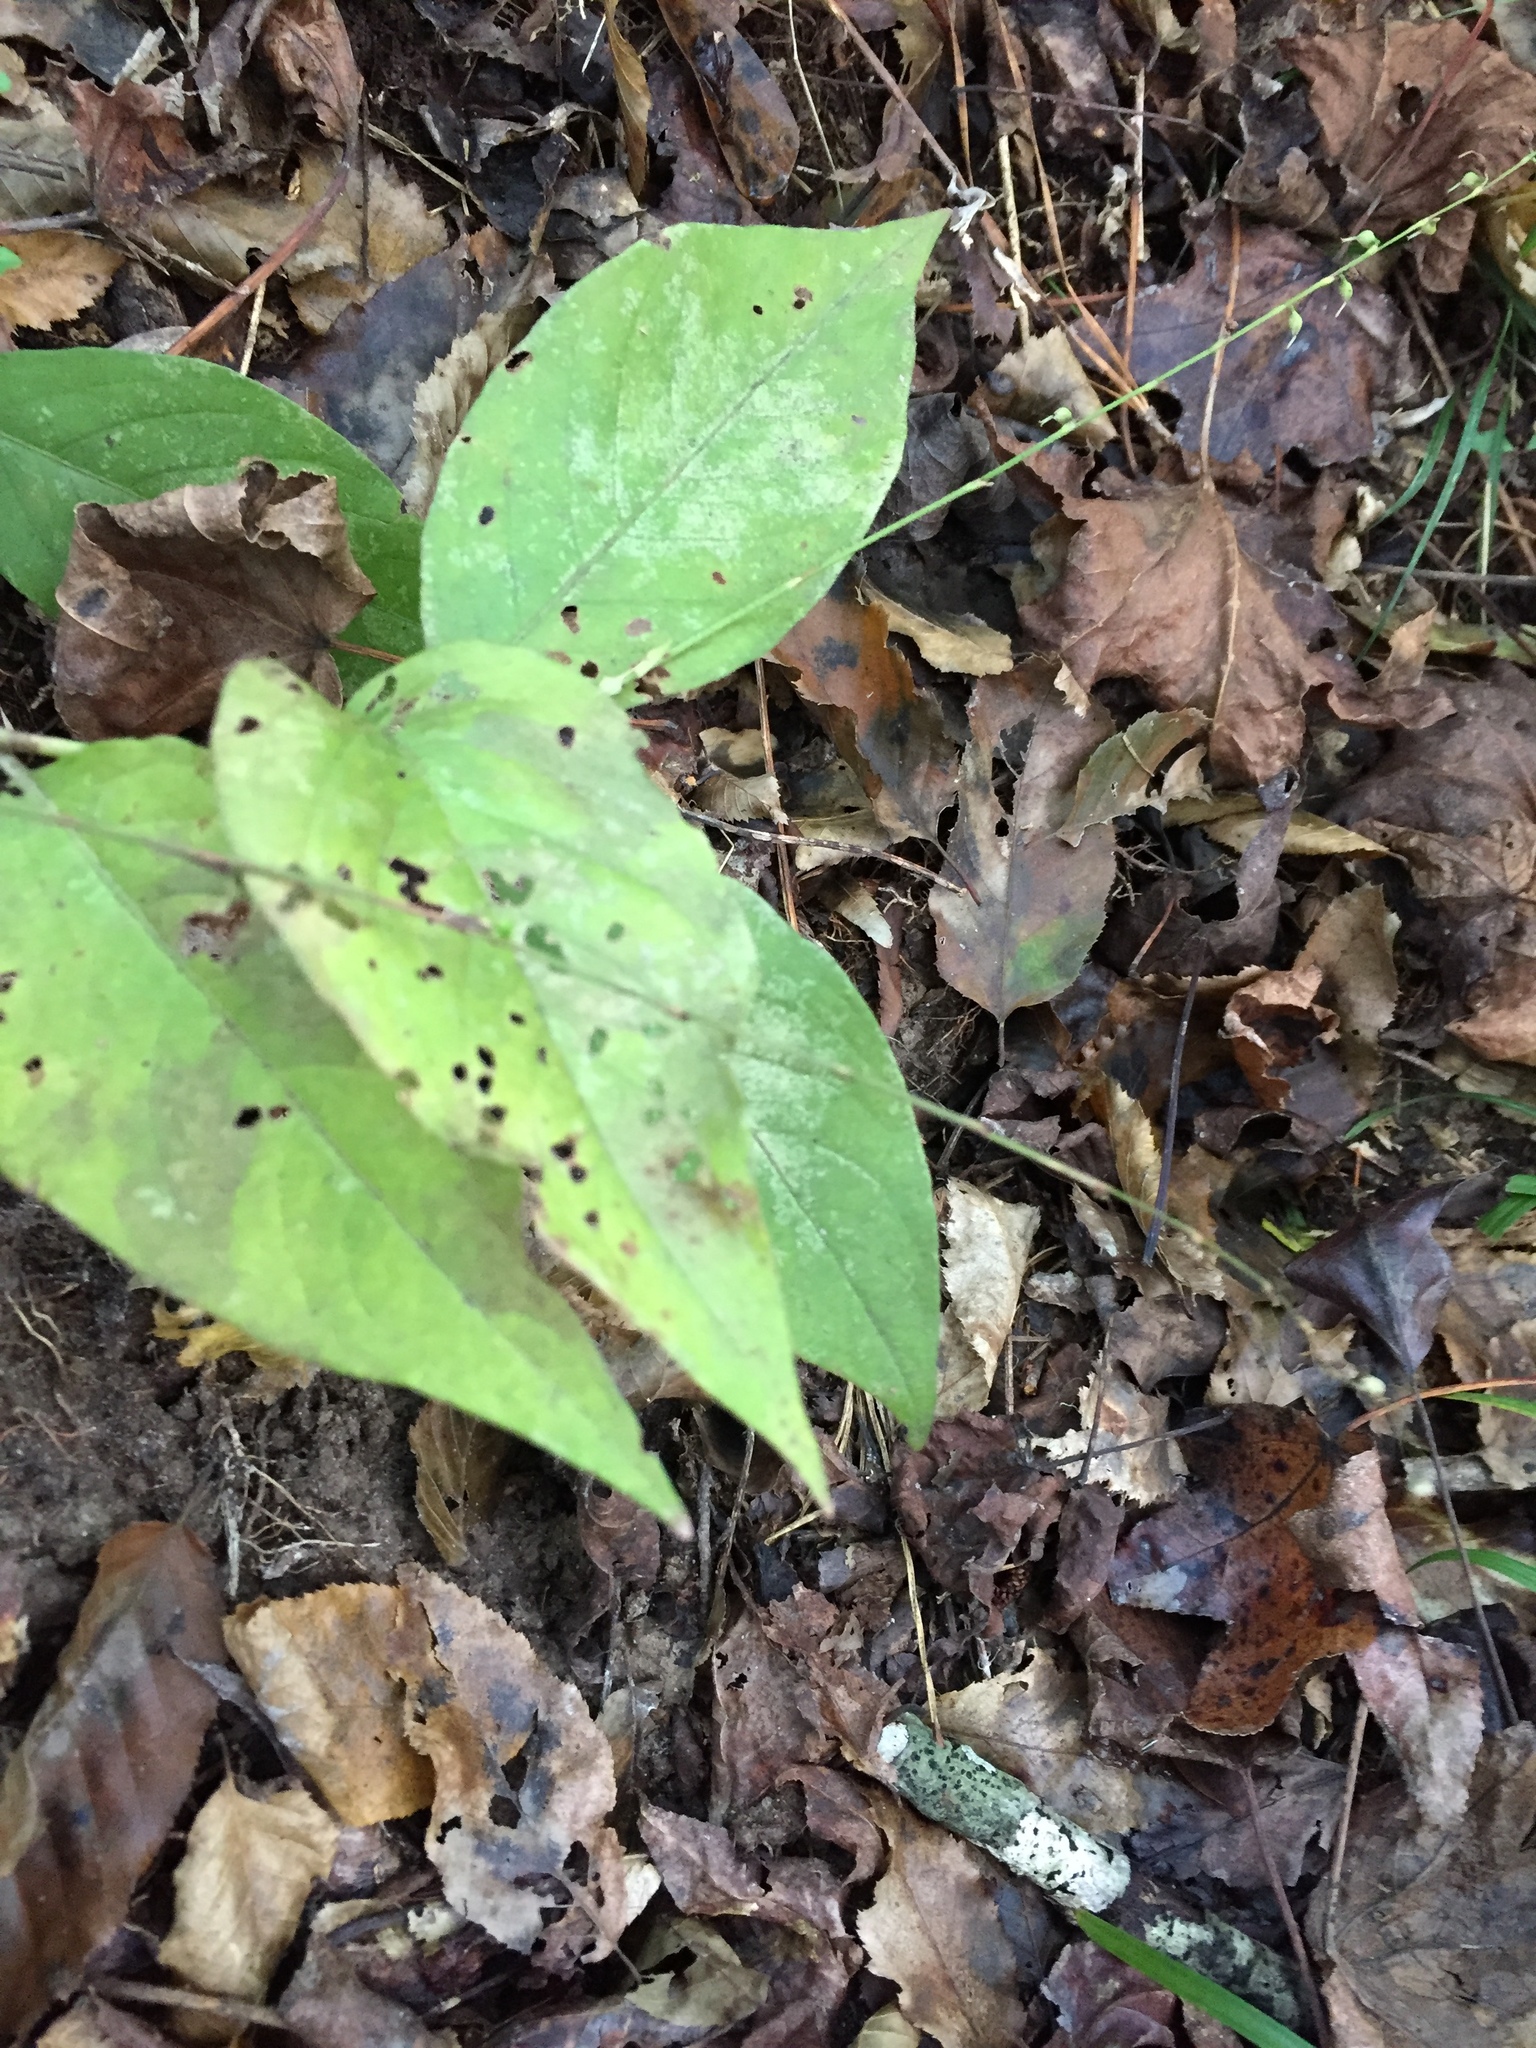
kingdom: Plantae
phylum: Tracheophyta
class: Magnoliopsida
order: Caryophyllales
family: Polygonaceae
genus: Persicaria
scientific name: Persicaria virginiana
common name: Jumpseed
